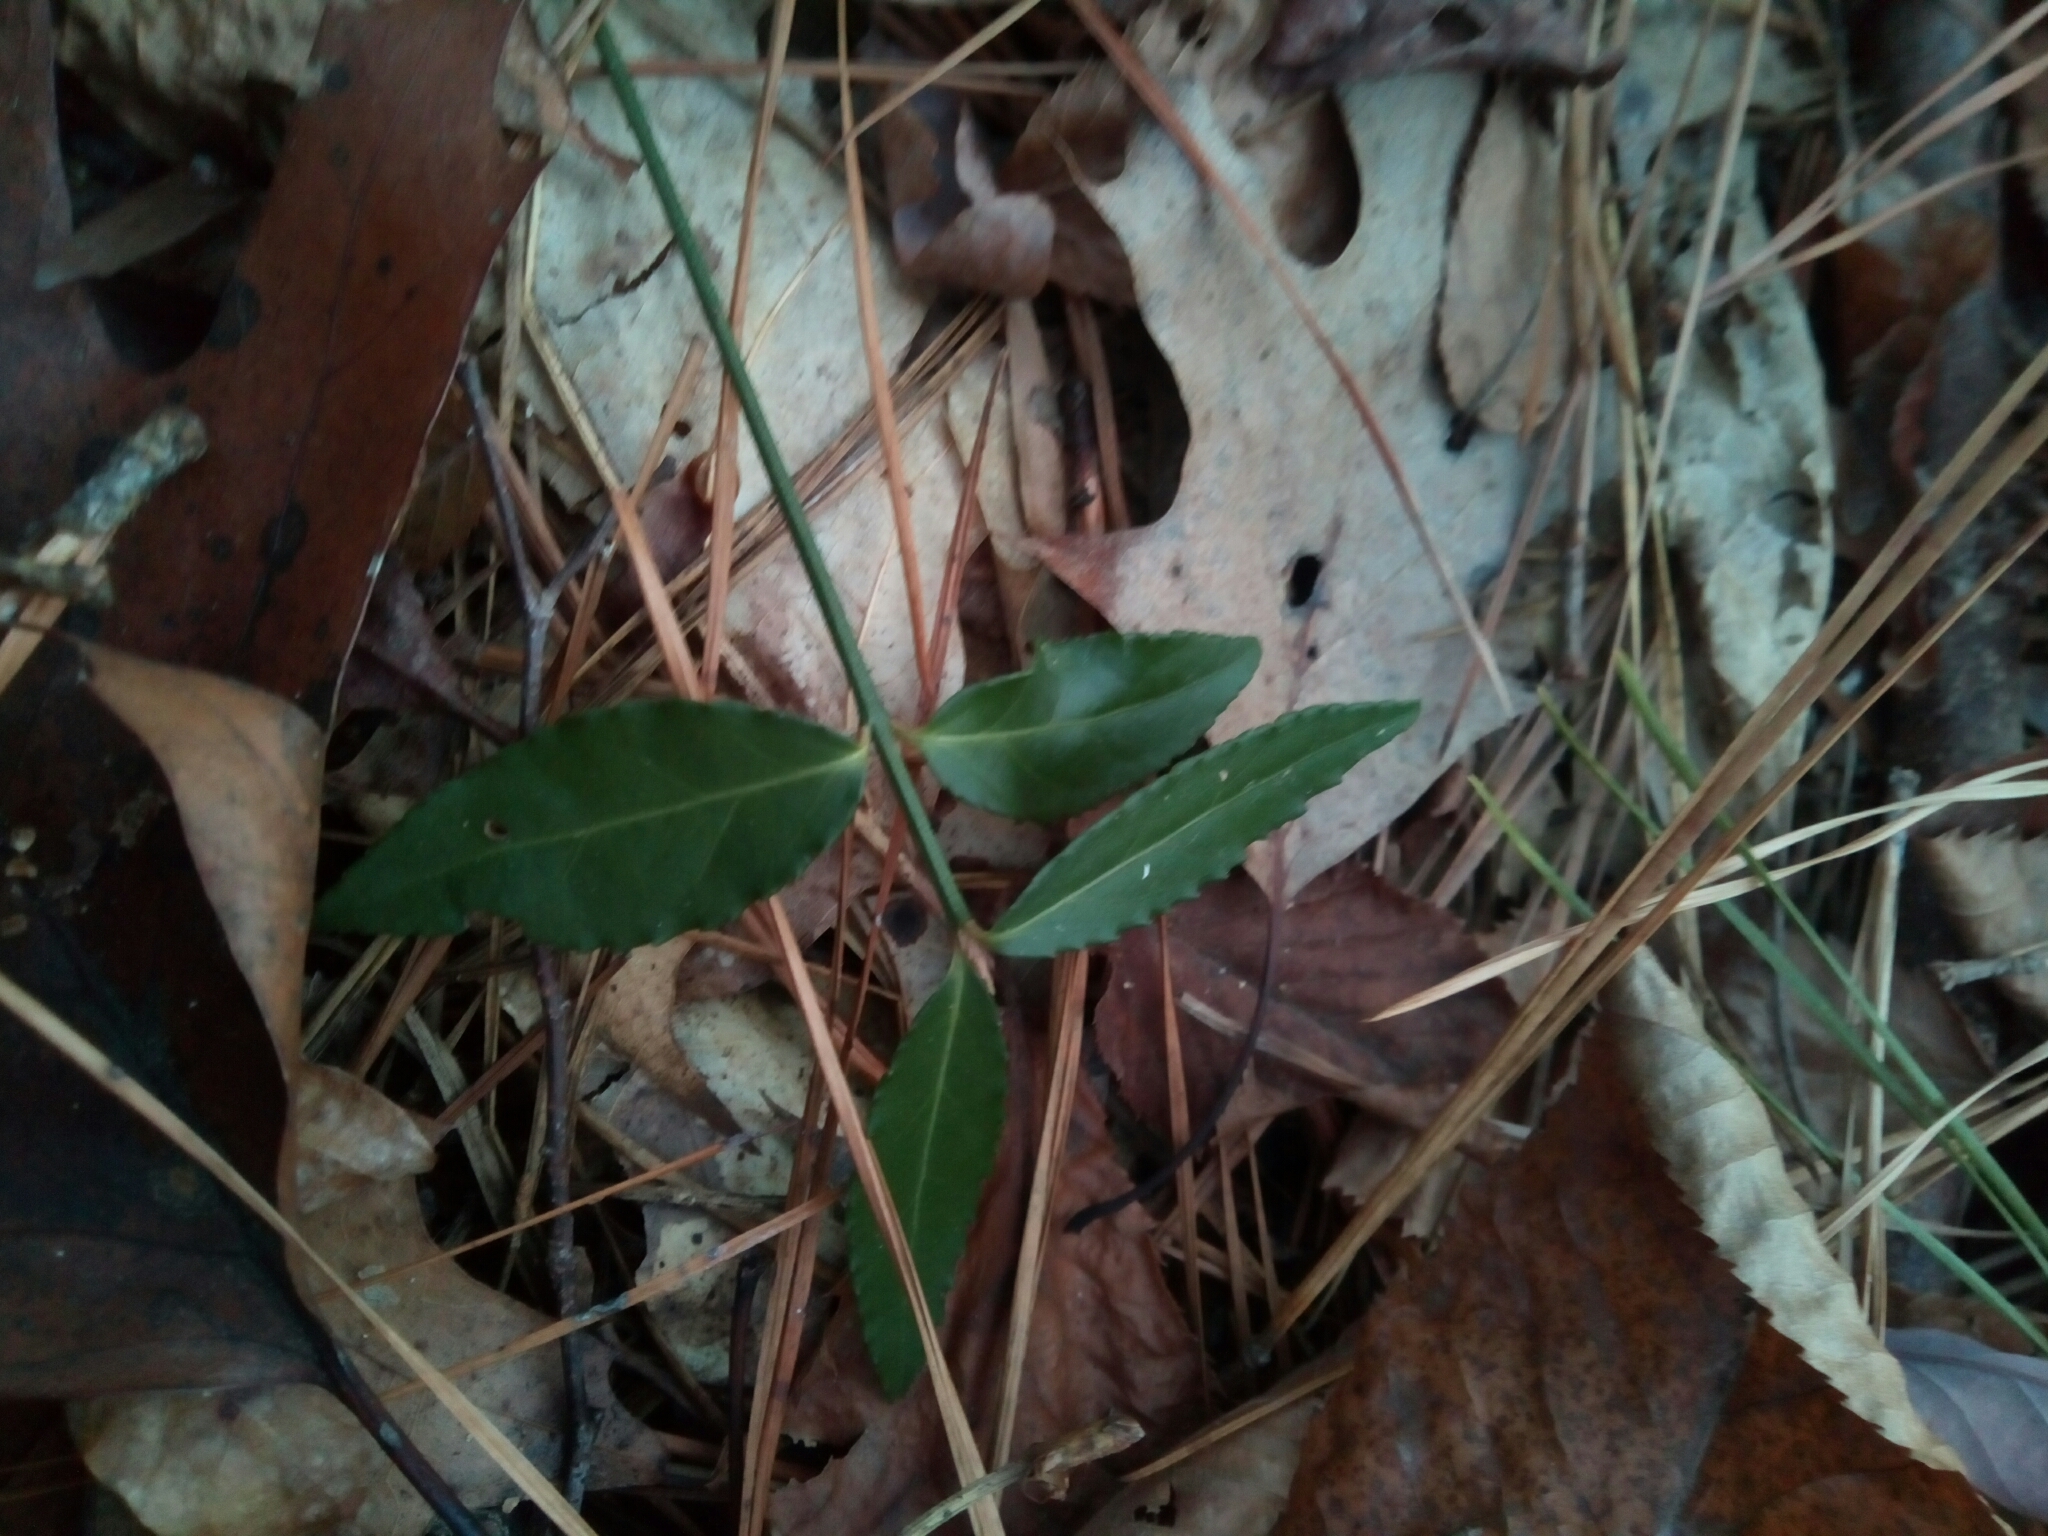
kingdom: Plantae
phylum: Tracheophyta
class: Magnoliopsida
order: Celastrales
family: Celastraceae
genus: Euonymus
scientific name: Euonymus americanus
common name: Bursting-heart
